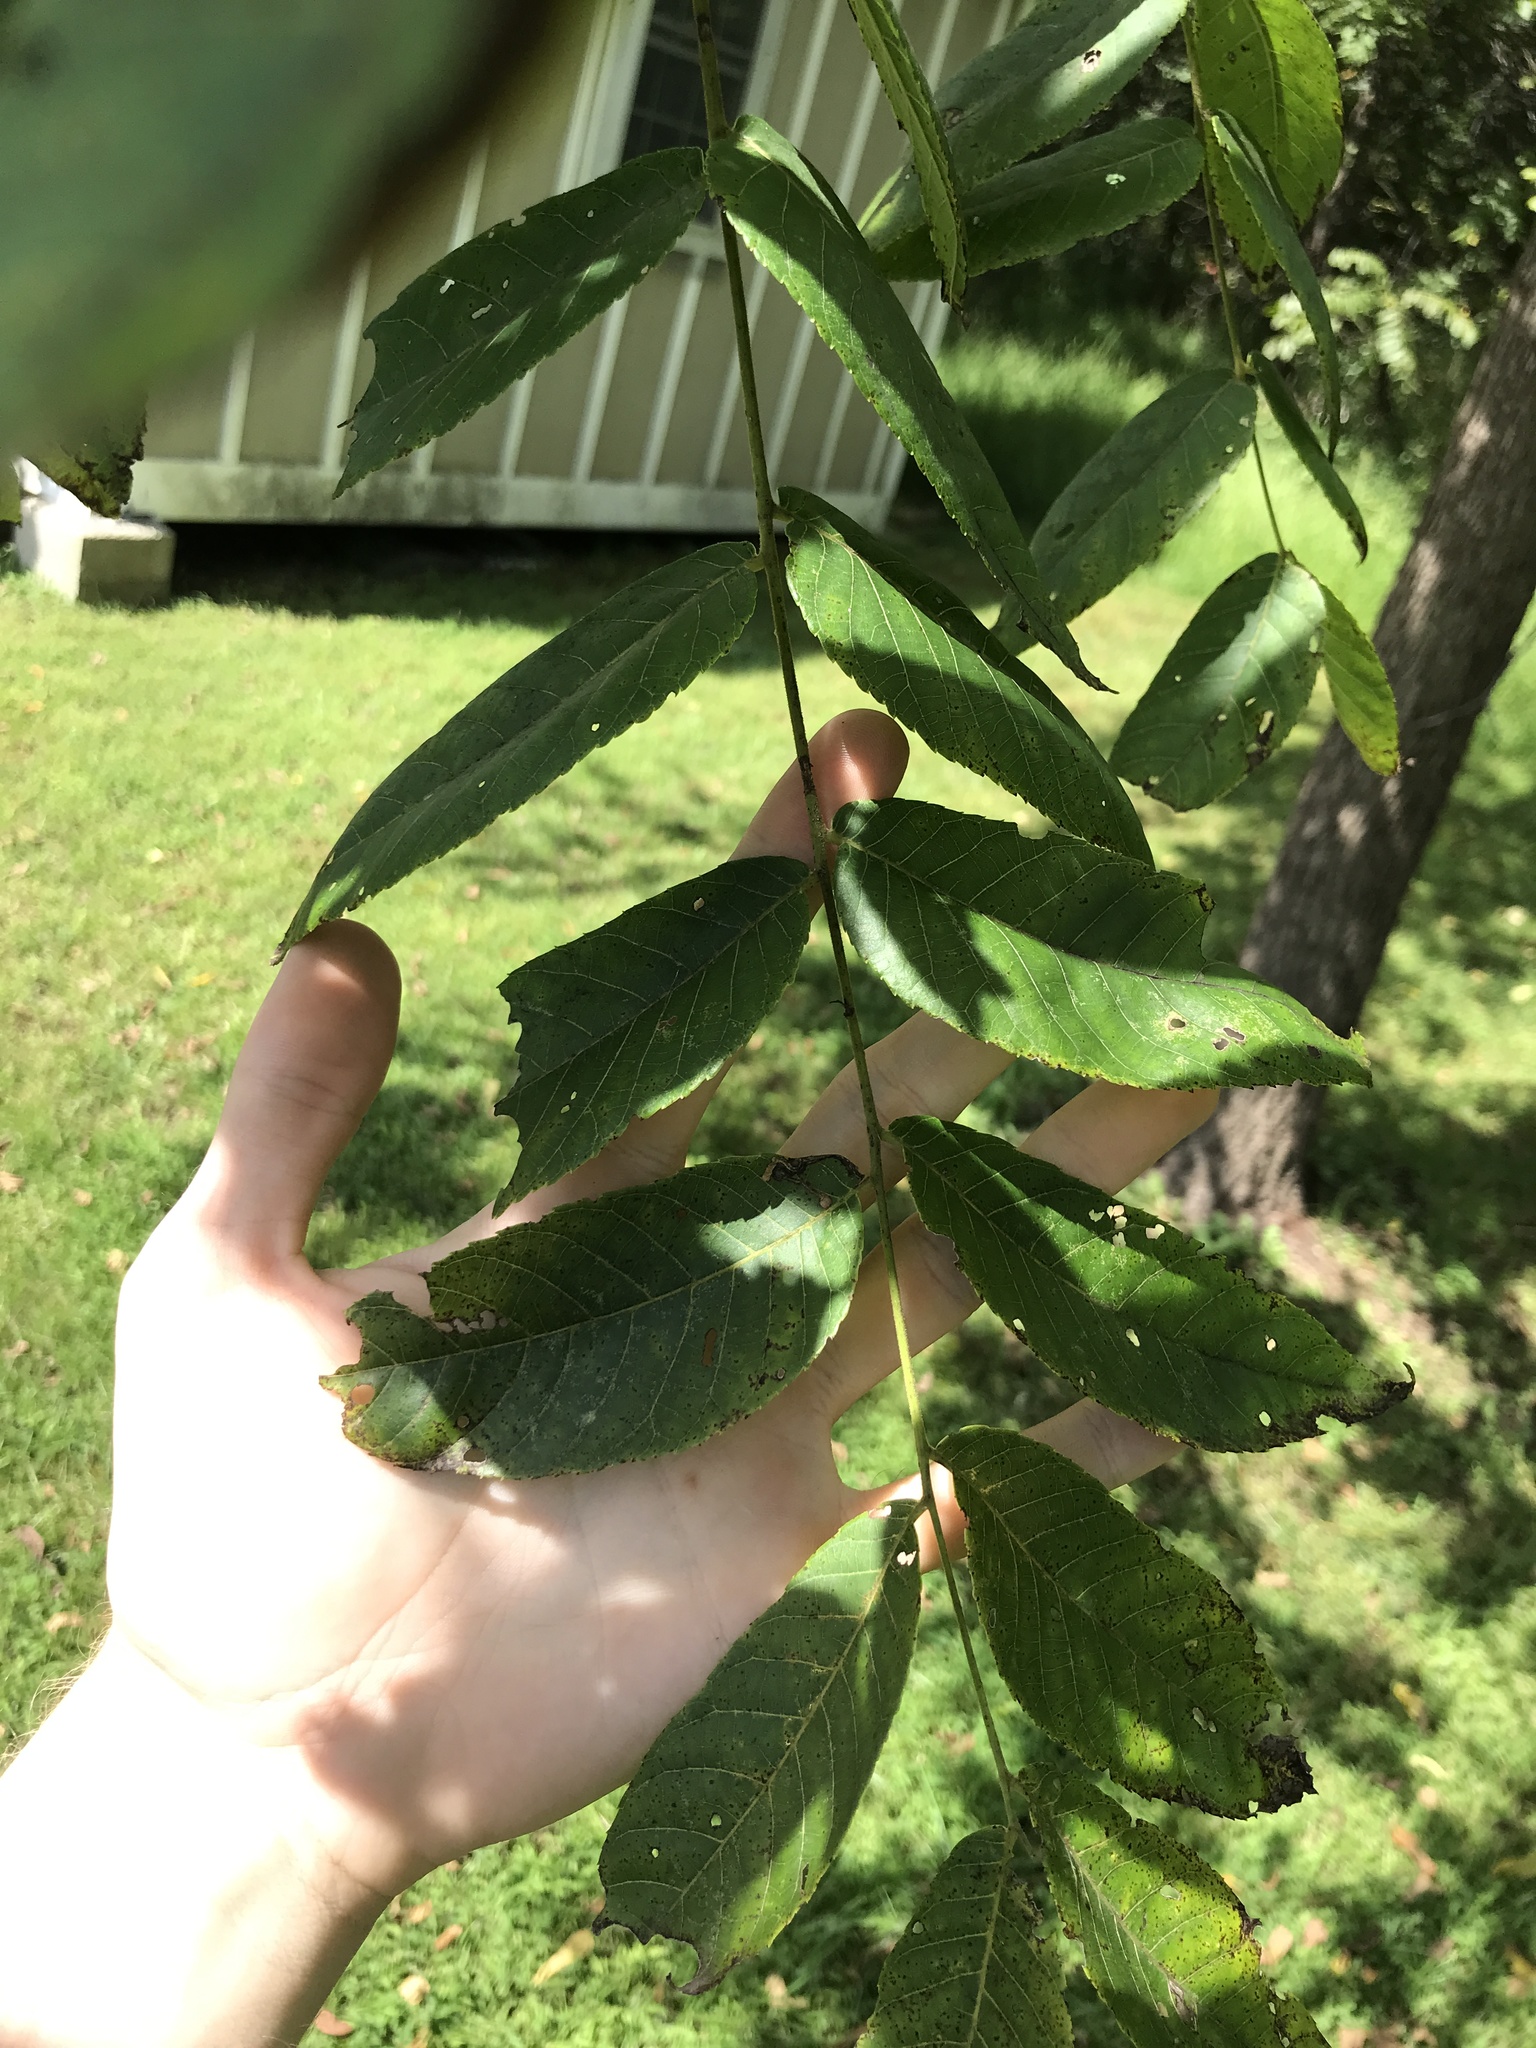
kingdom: Plantae
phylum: Tracheophyta
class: Magnoliopsida
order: Fagales
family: Juglandaceae
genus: Juglans
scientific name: Juglans nigra
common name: Black walnut
